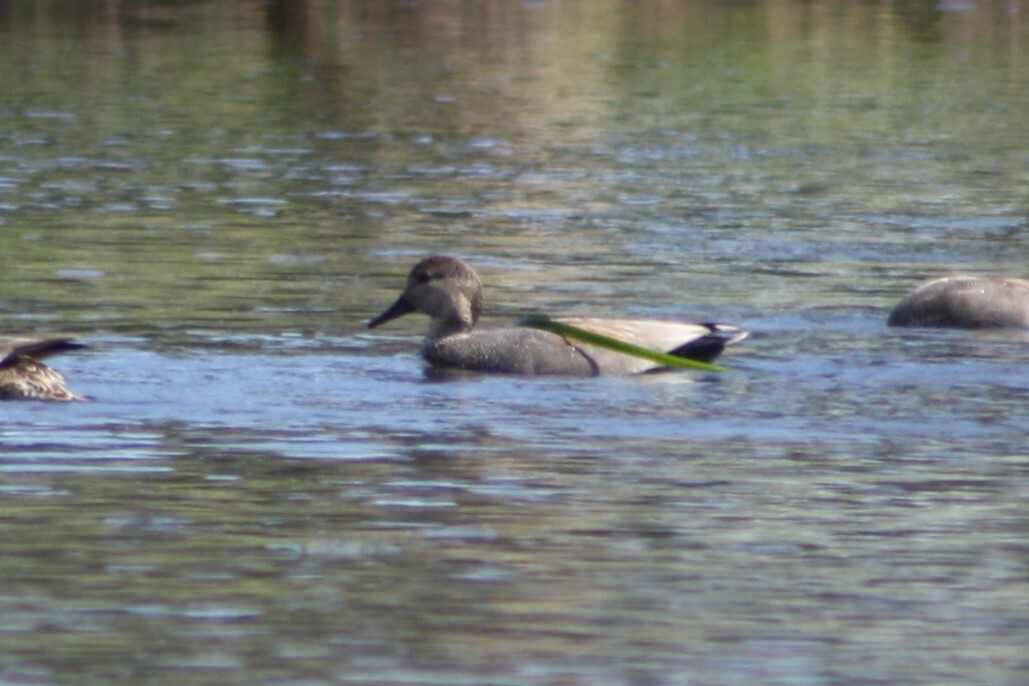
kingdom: Animalia
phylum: Chordata
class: Aves
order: Anseriformes
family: Anatidae
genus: Mareca
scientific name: Mareca strepera
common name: Gadwall
